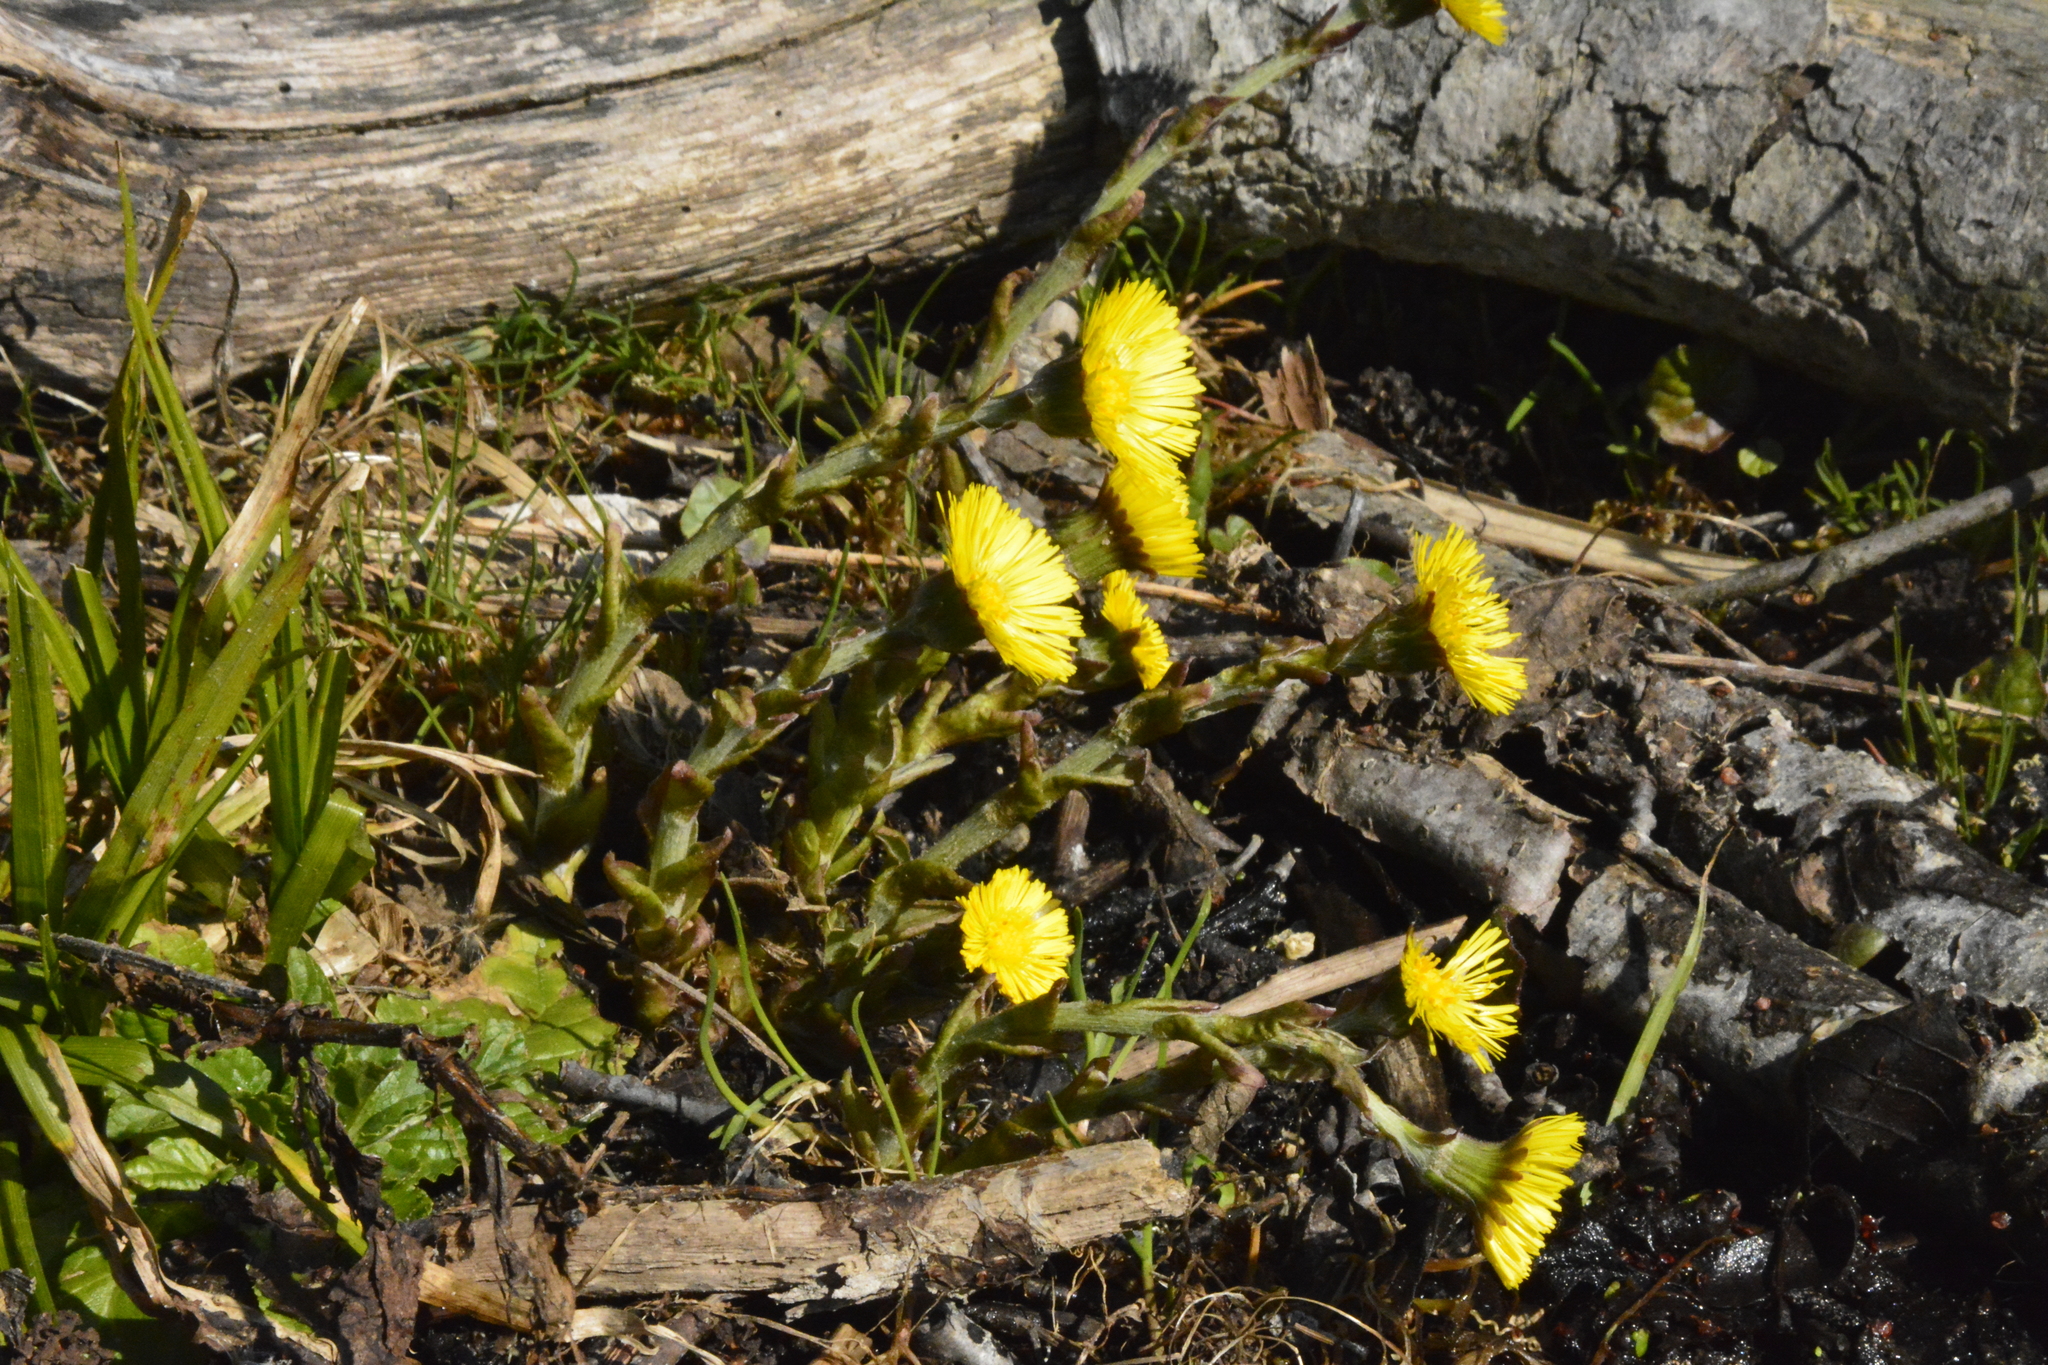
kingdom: Plantae
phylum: Tracheophyta
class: Magnoliopsida
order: Asterales
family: Asteraceae
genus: Tussilago
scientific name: Tussilago farfara
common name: Coltsfoot
